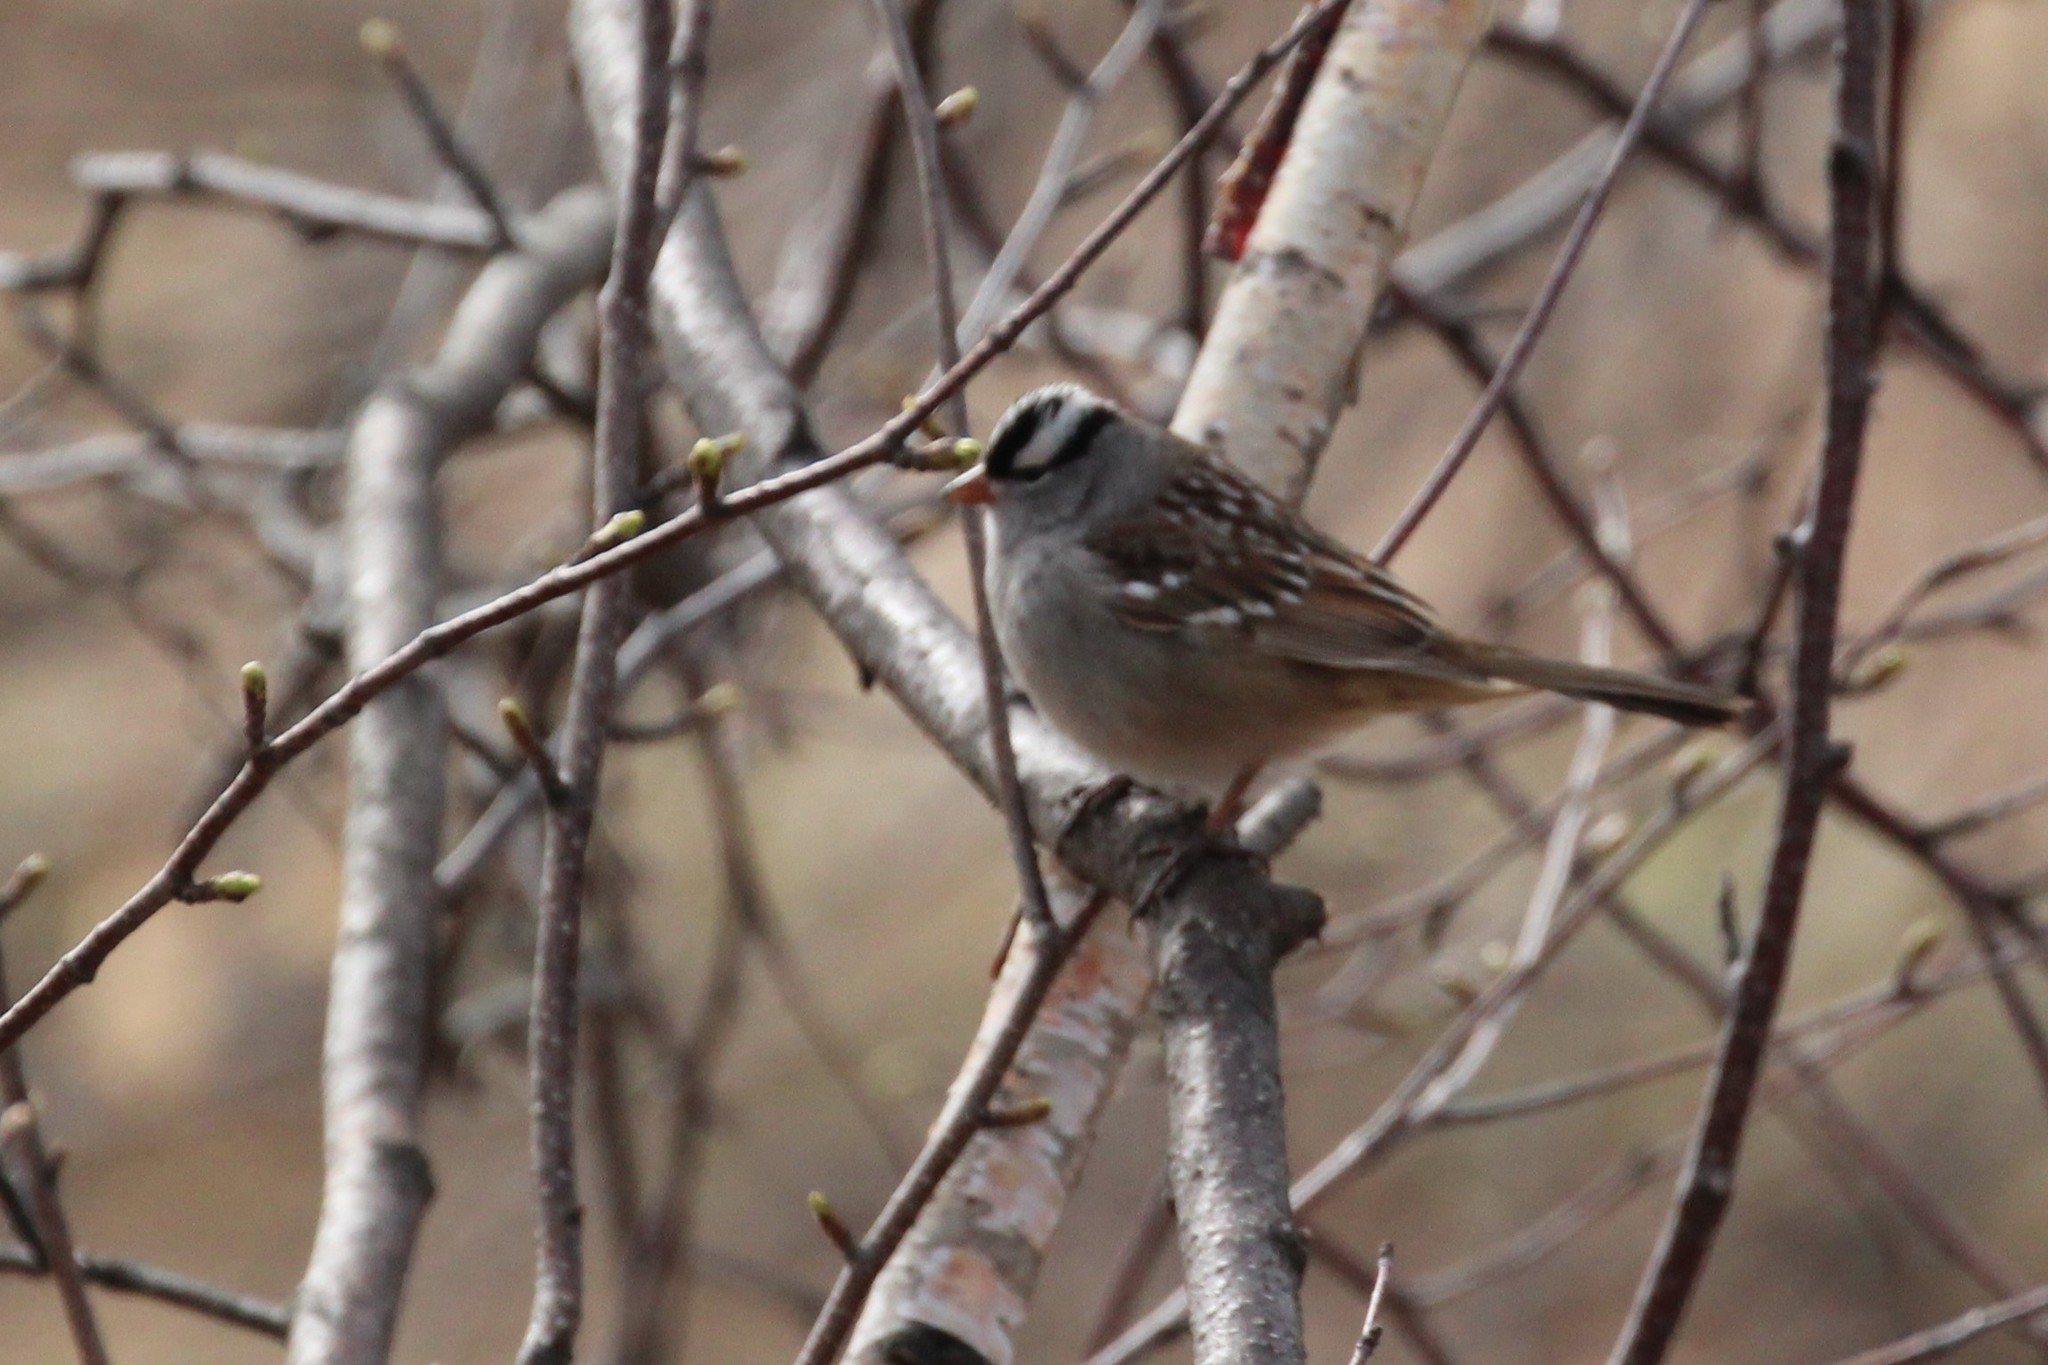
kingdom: Animalia
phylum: Chordata
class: Aves
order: Passeriformes
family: Passerellidae
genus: Zonotrichia
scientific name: Zonotrichia leucophrys
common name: White-crowned sparrow
